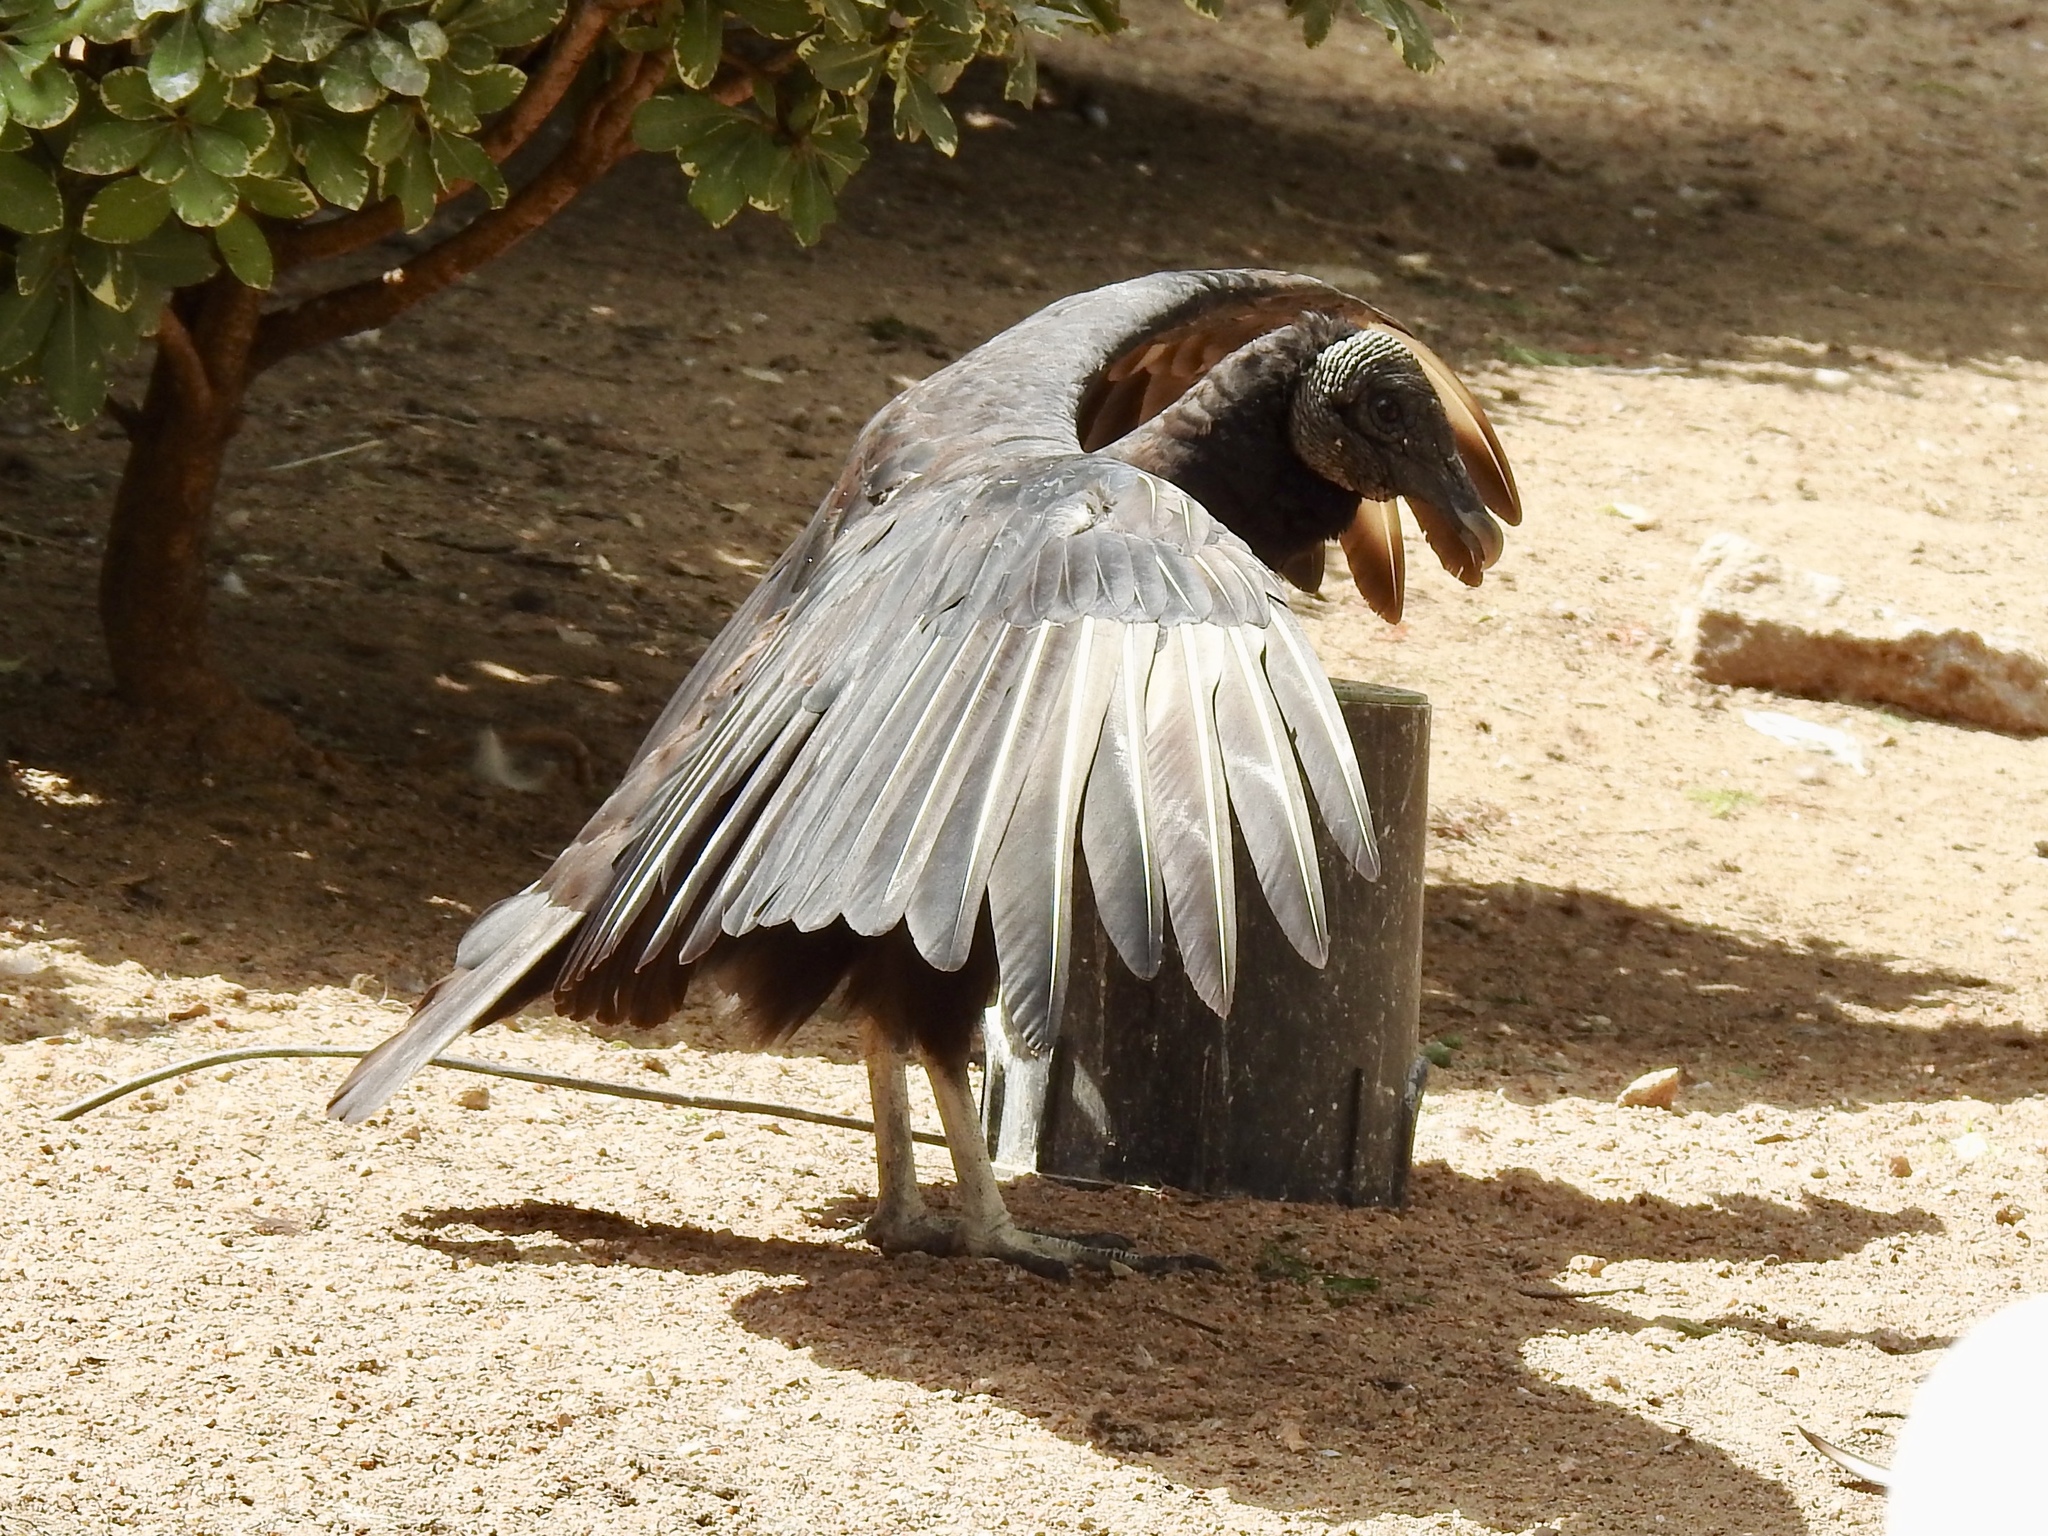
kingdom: Animalia
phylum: Chordata
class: Aves
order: Accipitriformes
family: Cathartidae
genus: Coragyps
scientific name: Coragyps atratus
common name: Black vulture
